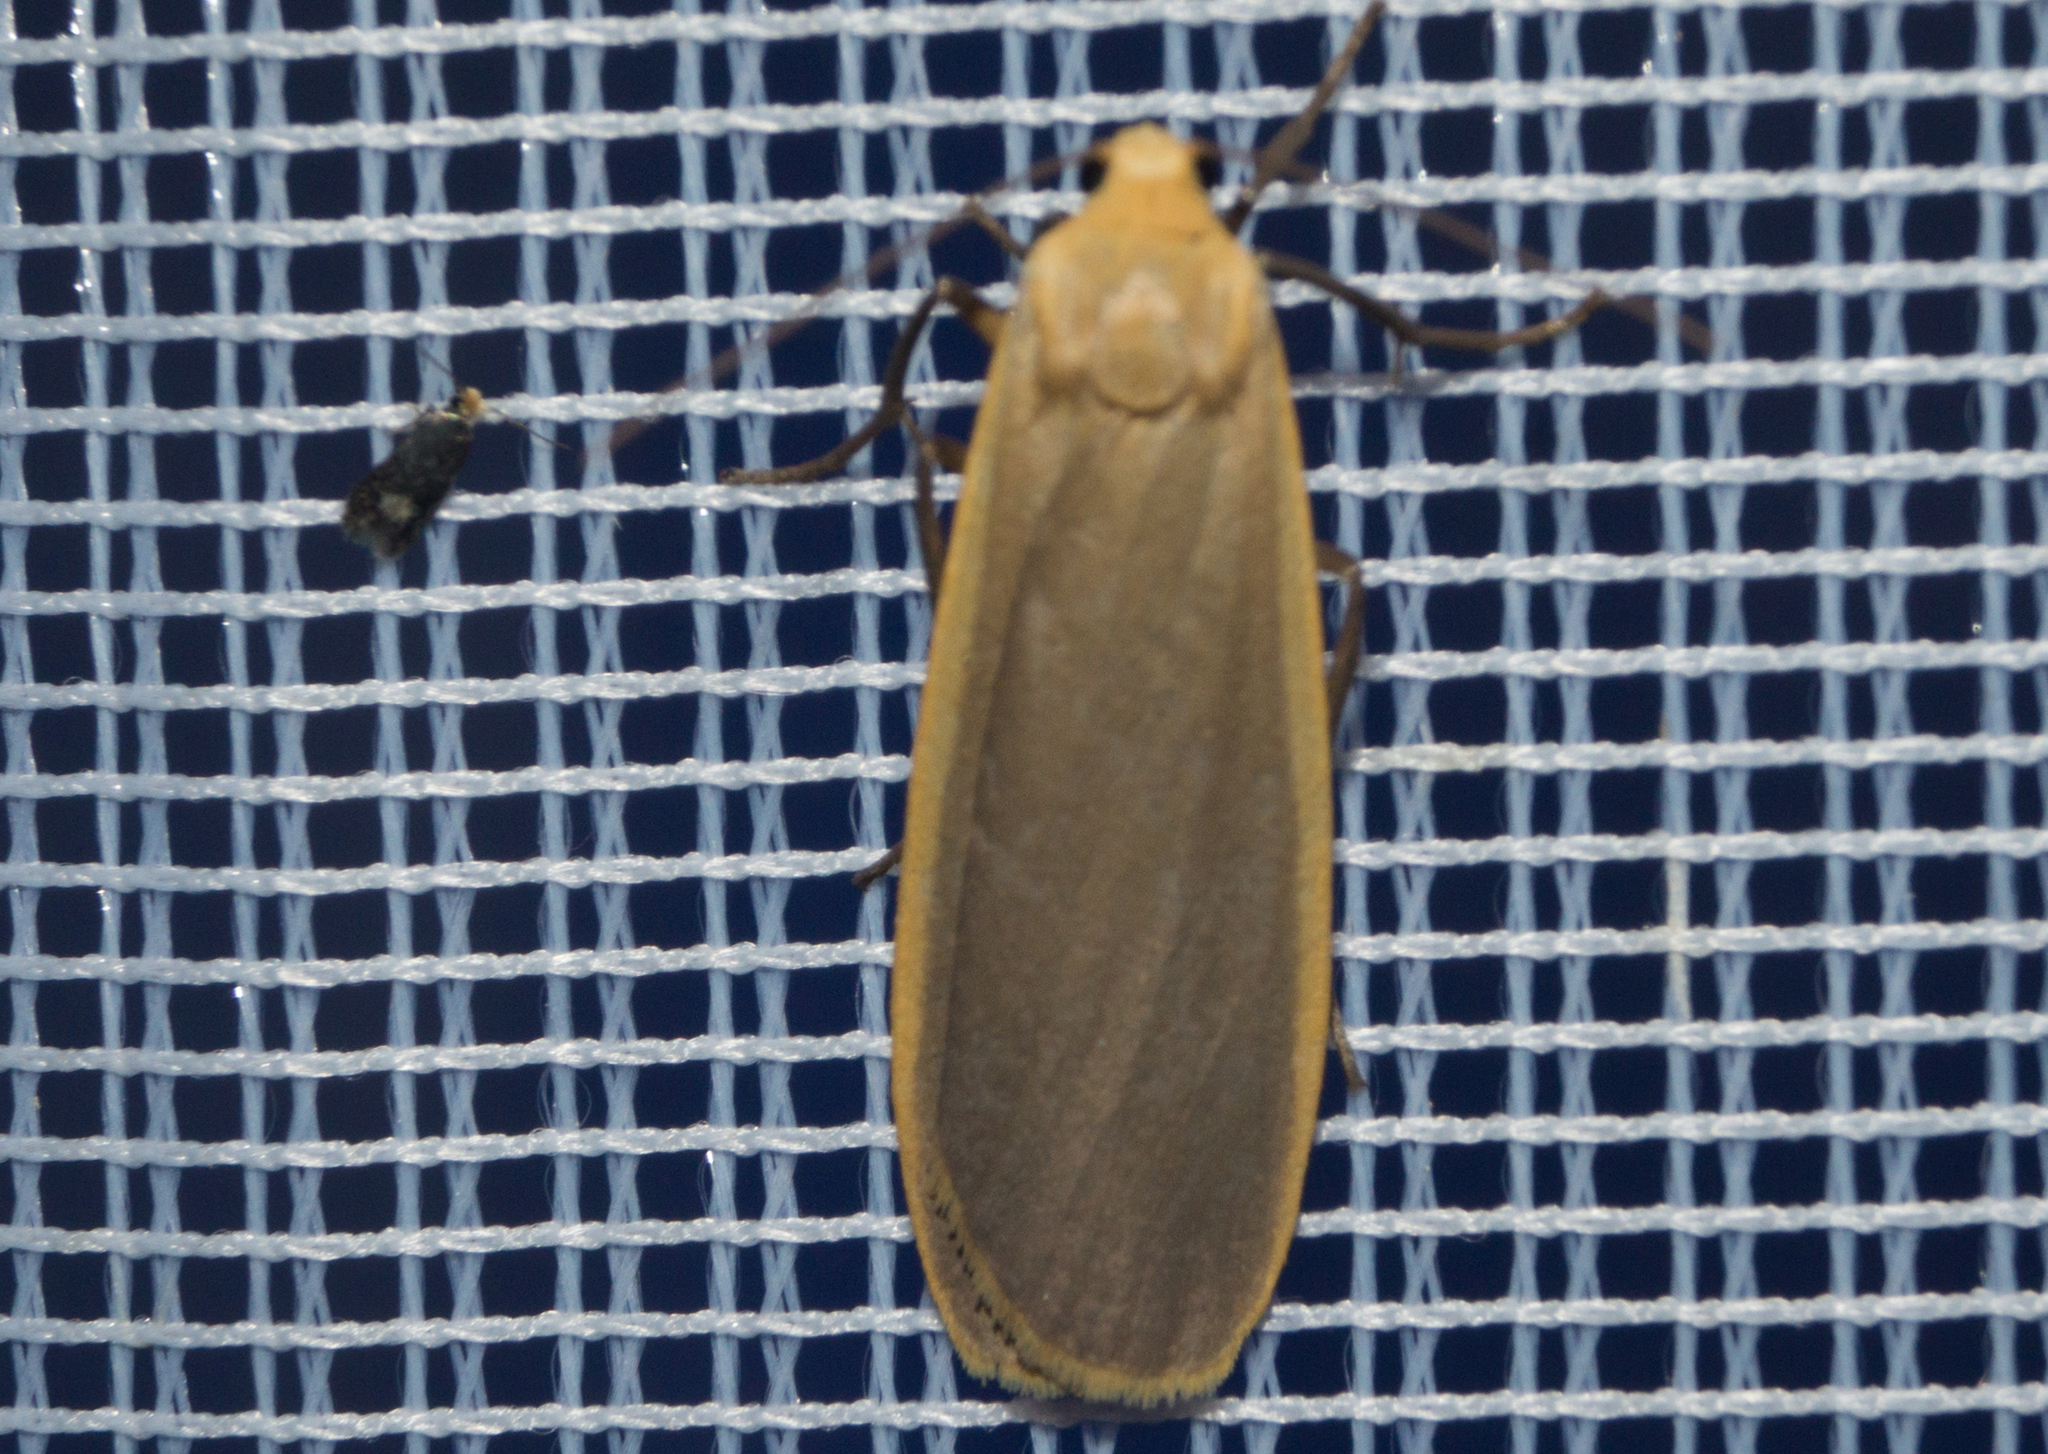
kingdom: Animalia
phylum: Arthropoda
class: Insecta
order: Lepidoptera
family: Erebidae
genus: Katha
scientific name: Katha depressa
